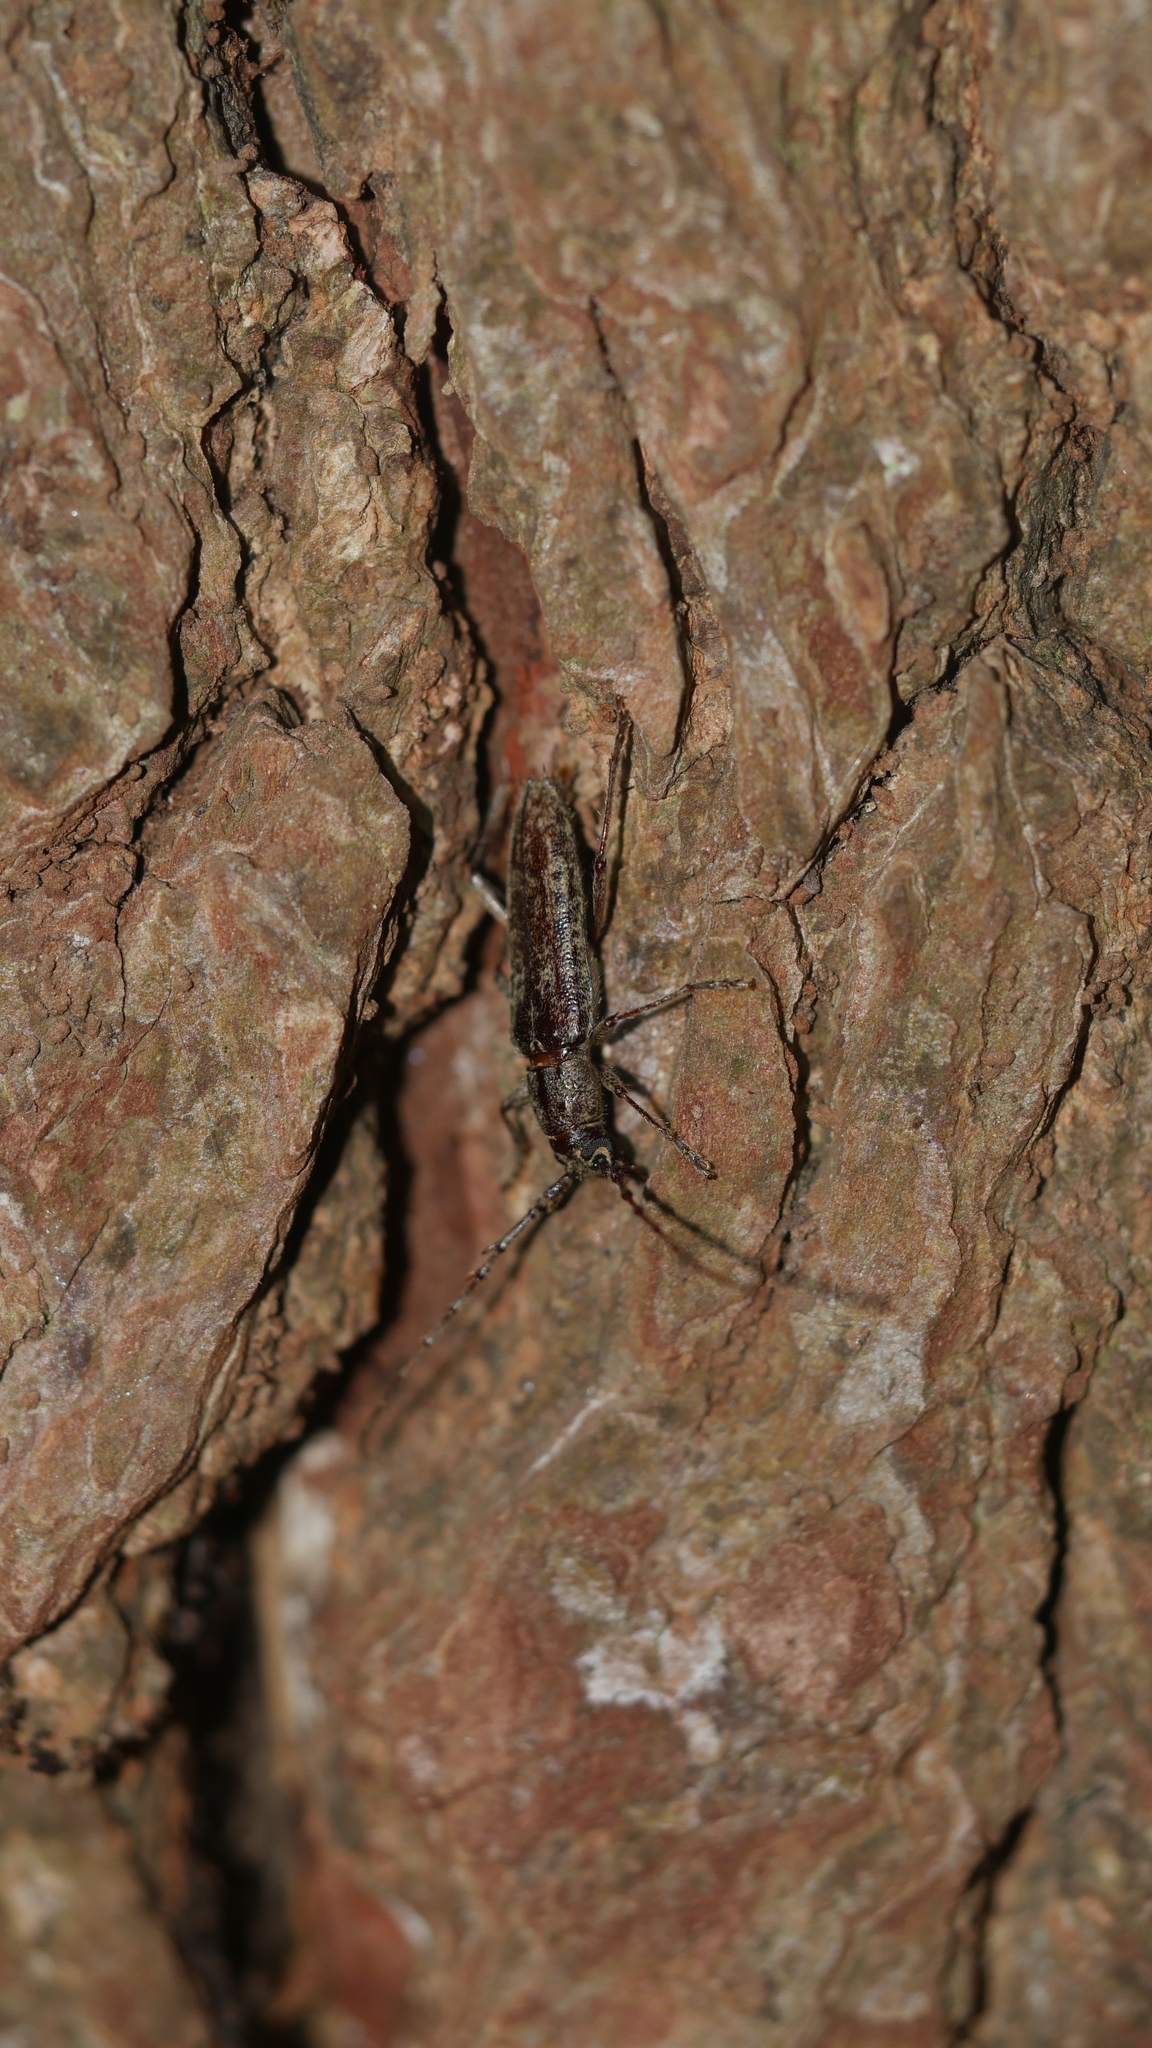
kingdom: Animalia
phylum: Arthropoda
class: Insecta
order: Coleoptera
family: Cerambycidae
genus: Elaphidion
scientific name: Elaphidion mucronatum
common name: Spined oak borer
